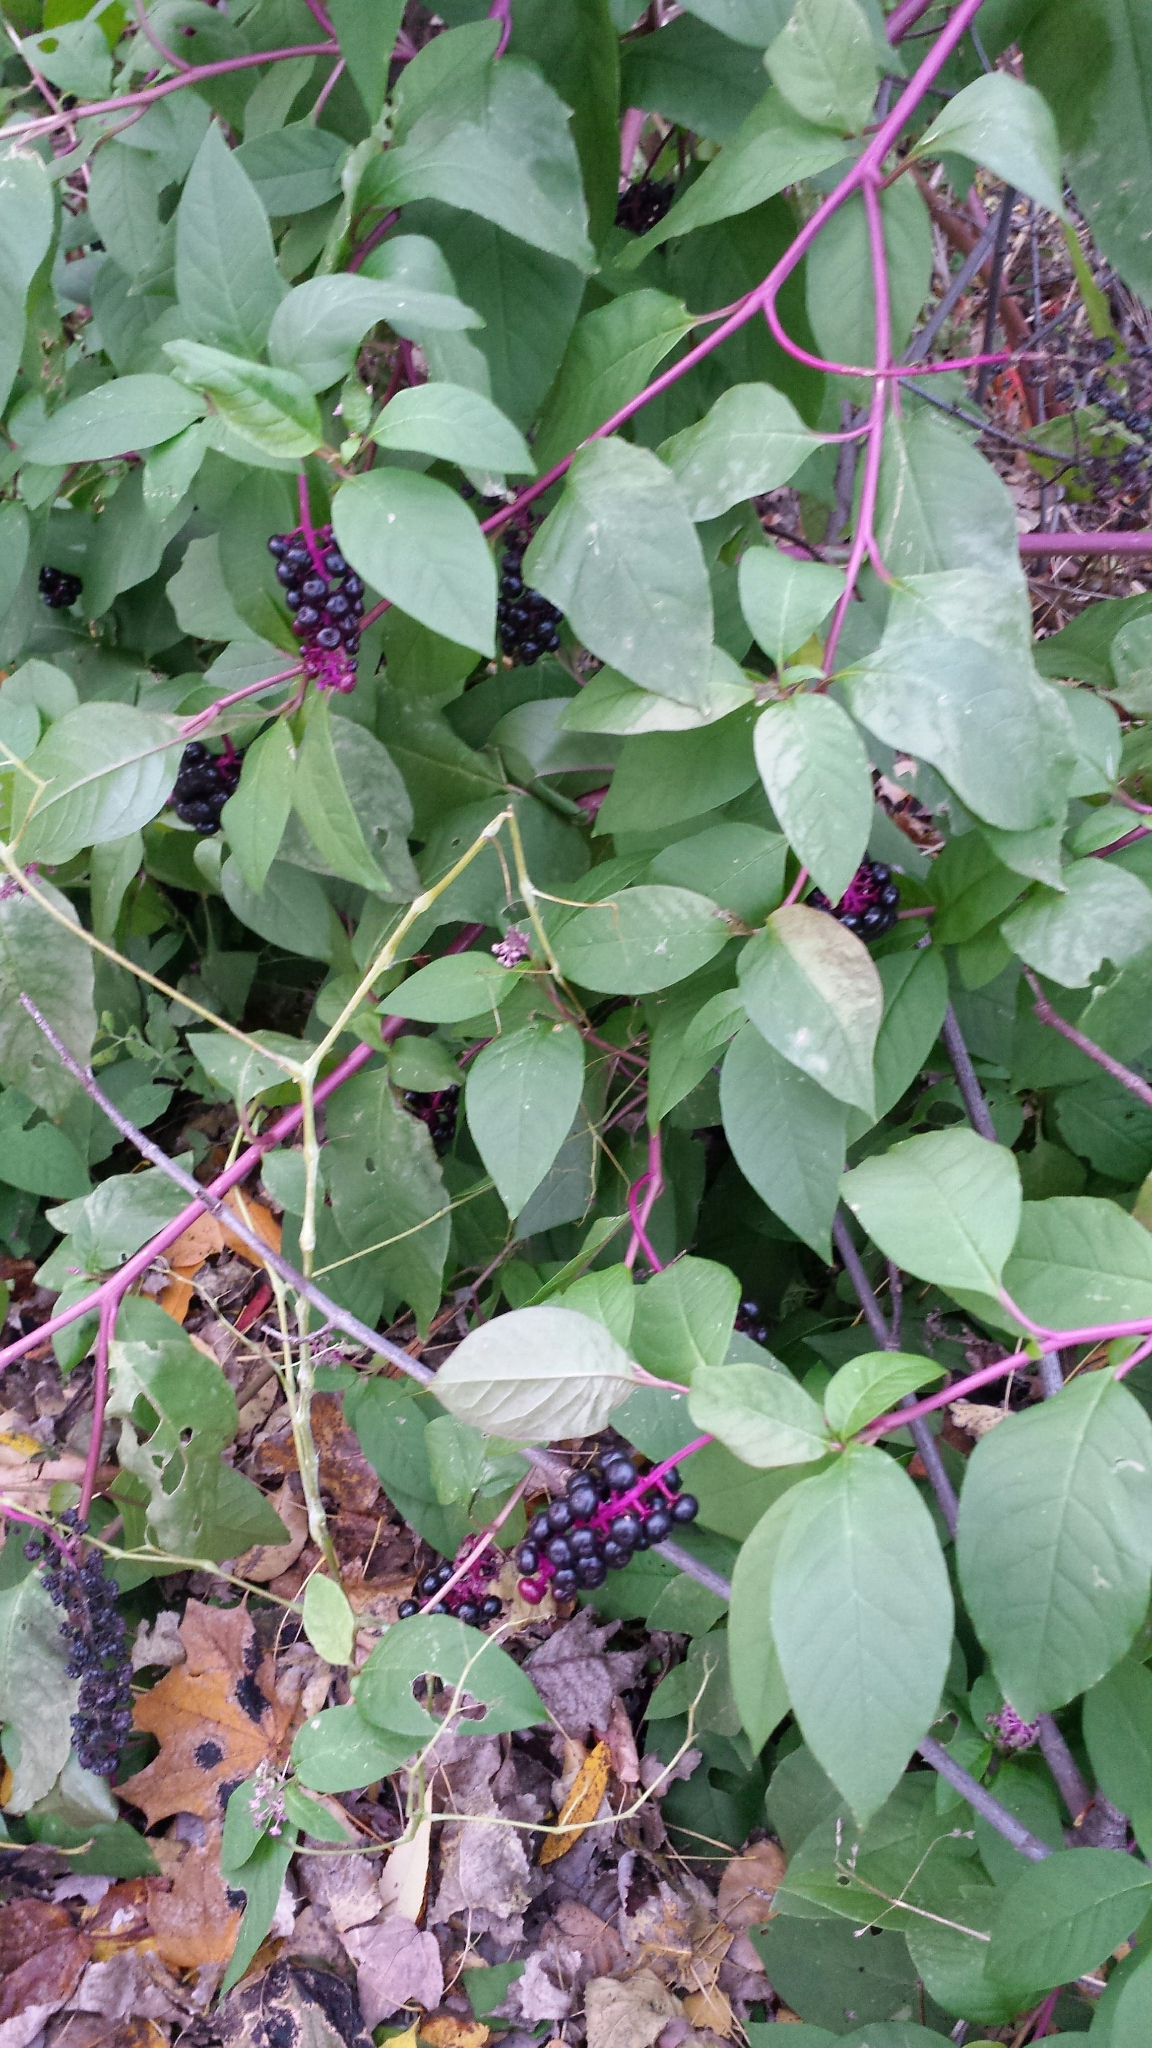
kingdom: Plantae
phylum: Tracheophyta
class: Magnoliopsida
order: Caryophyllales
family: Phytolaccaceae
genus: Phytolacca
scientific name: Phytolacca americana
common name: American pokeweed
